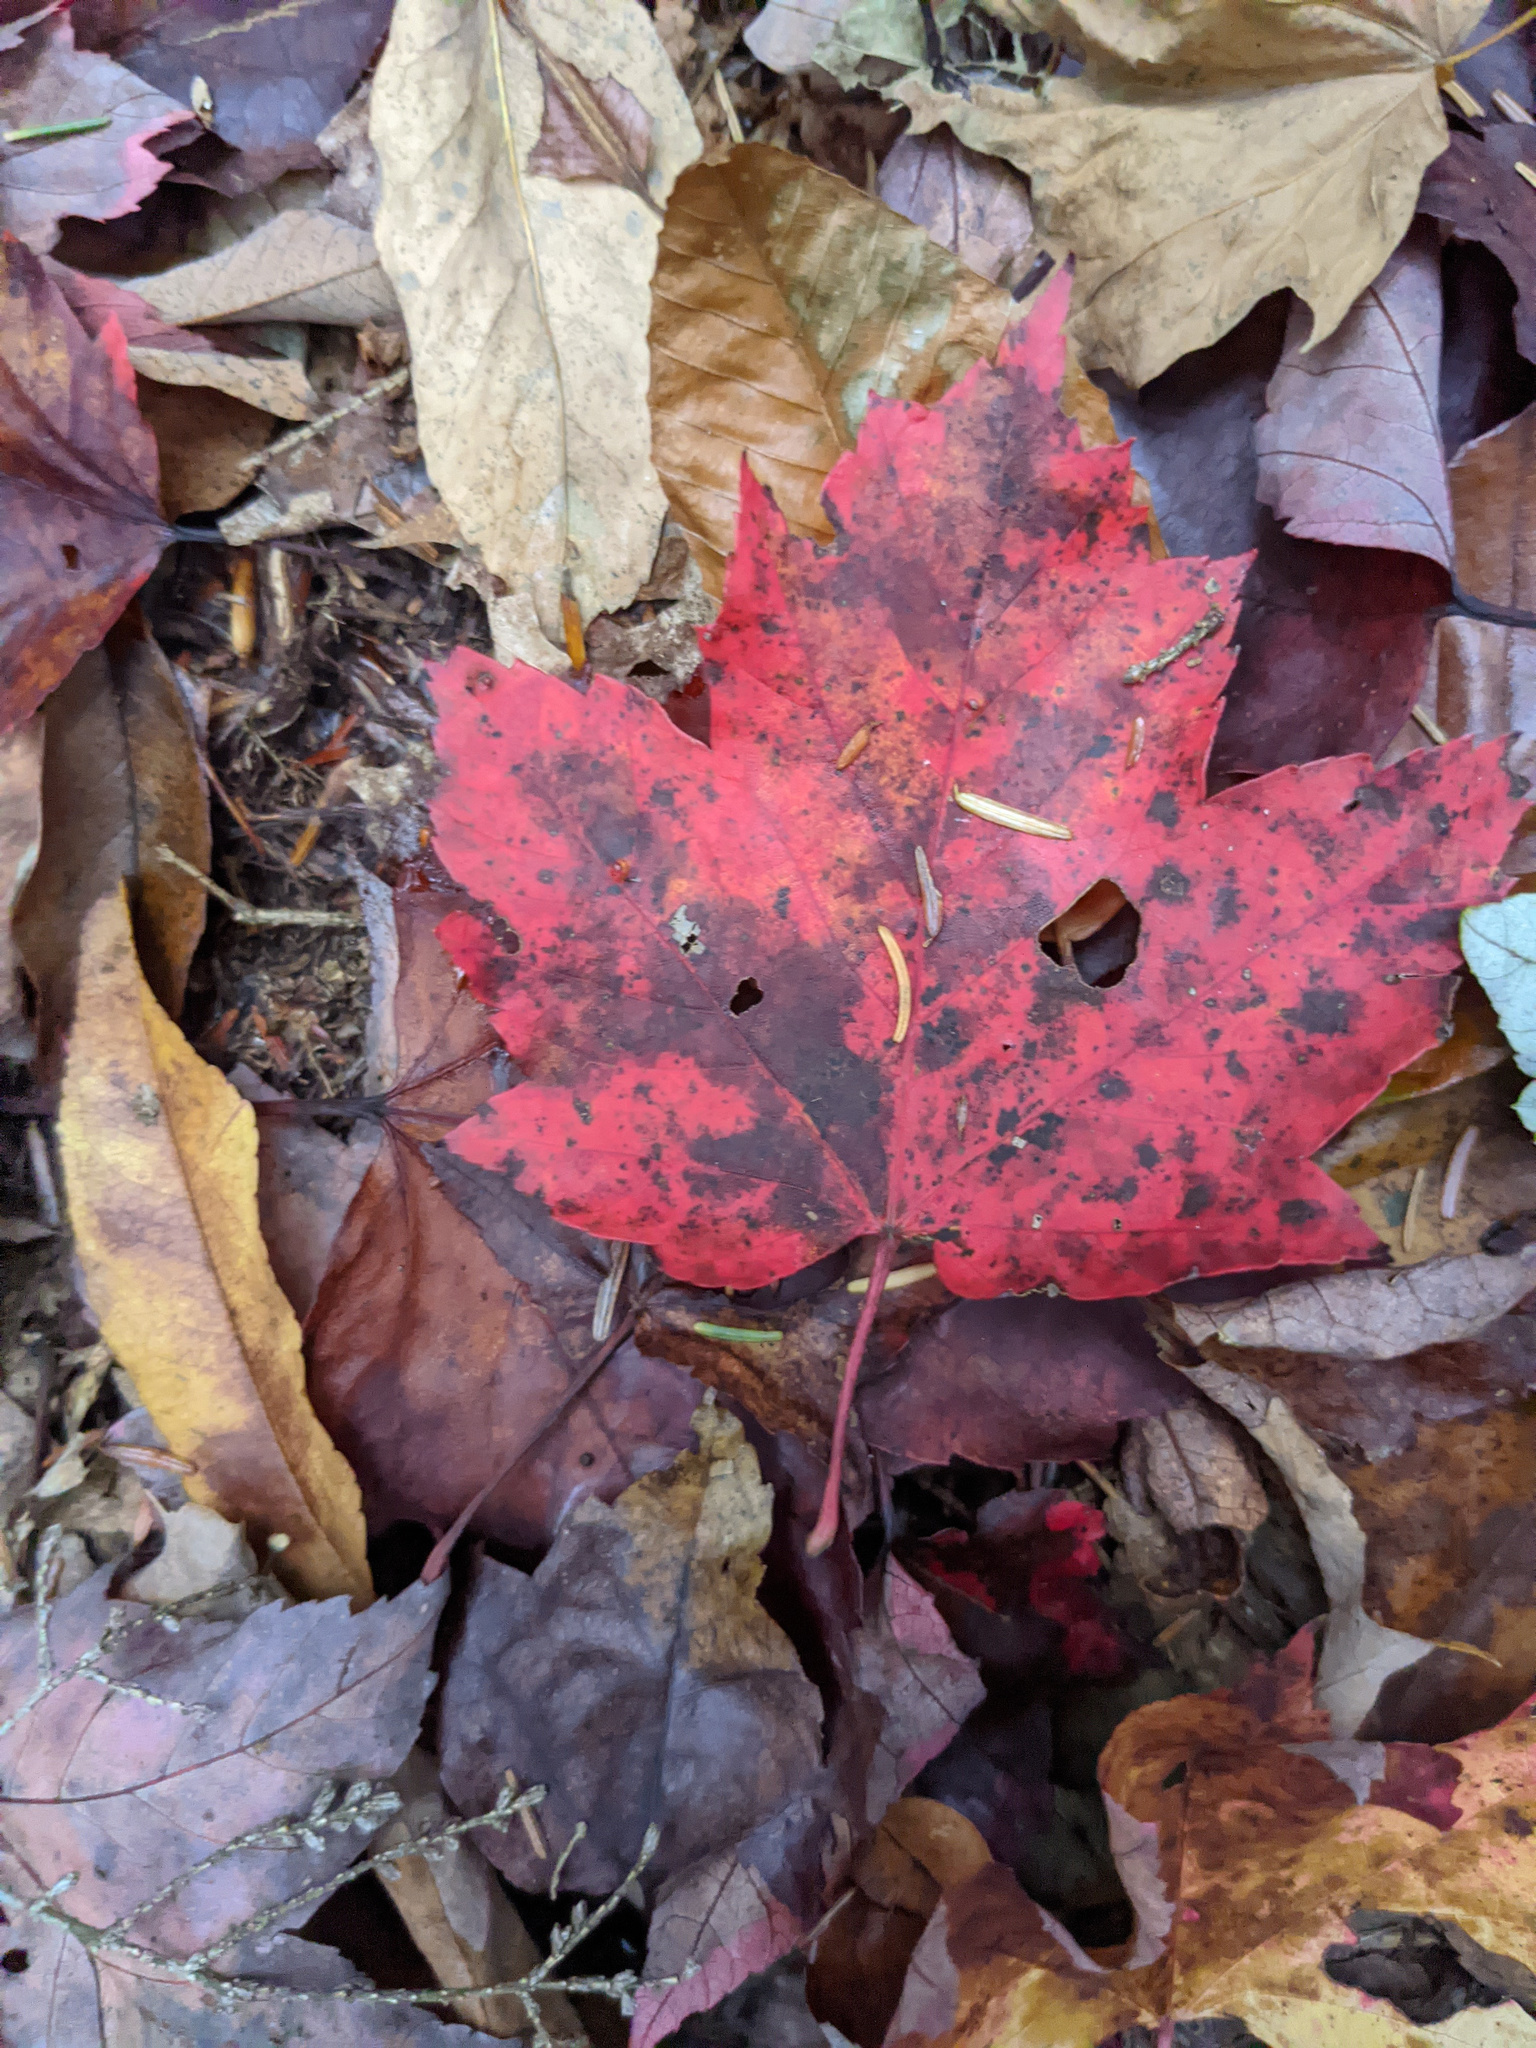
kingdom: Plantae
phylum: Tracheophyta
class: Magnoliopsida
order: Sapindales
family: Sapindaceae
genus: Acer
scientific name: Acer rubrum
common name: Red maple
